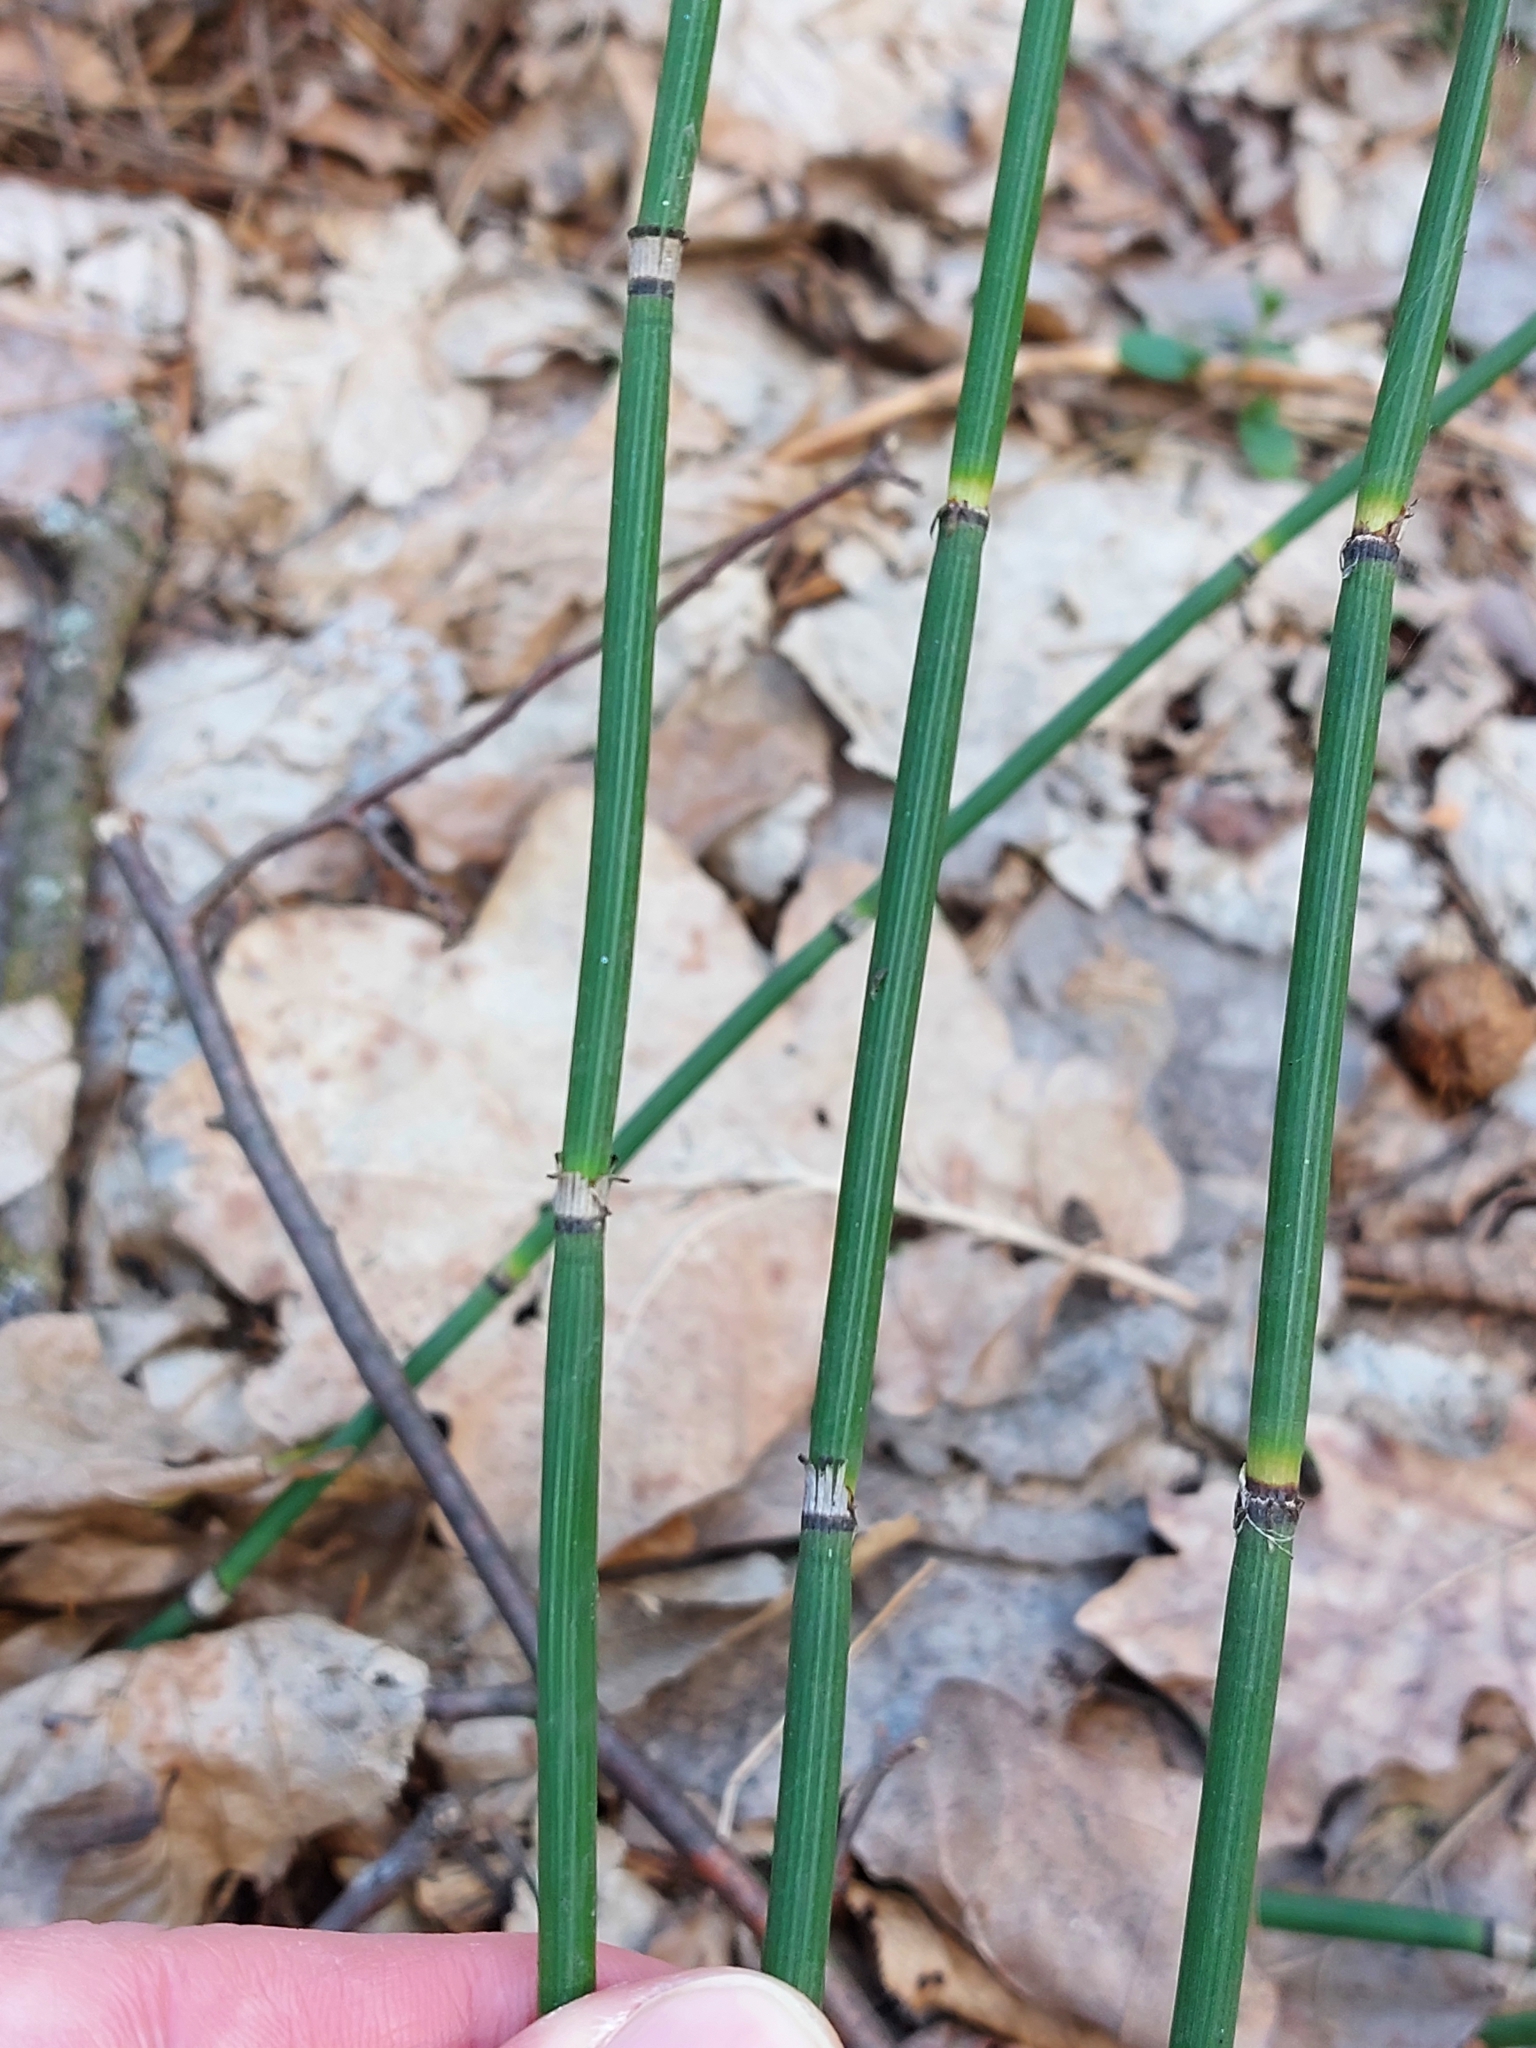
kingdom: Plantae
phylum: Tracheophyta
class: Polypodiopsida
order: Equisetales
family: Equisetaceae
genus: Equisetum
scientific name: Equisetum hyemale
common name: Rough horsetail
